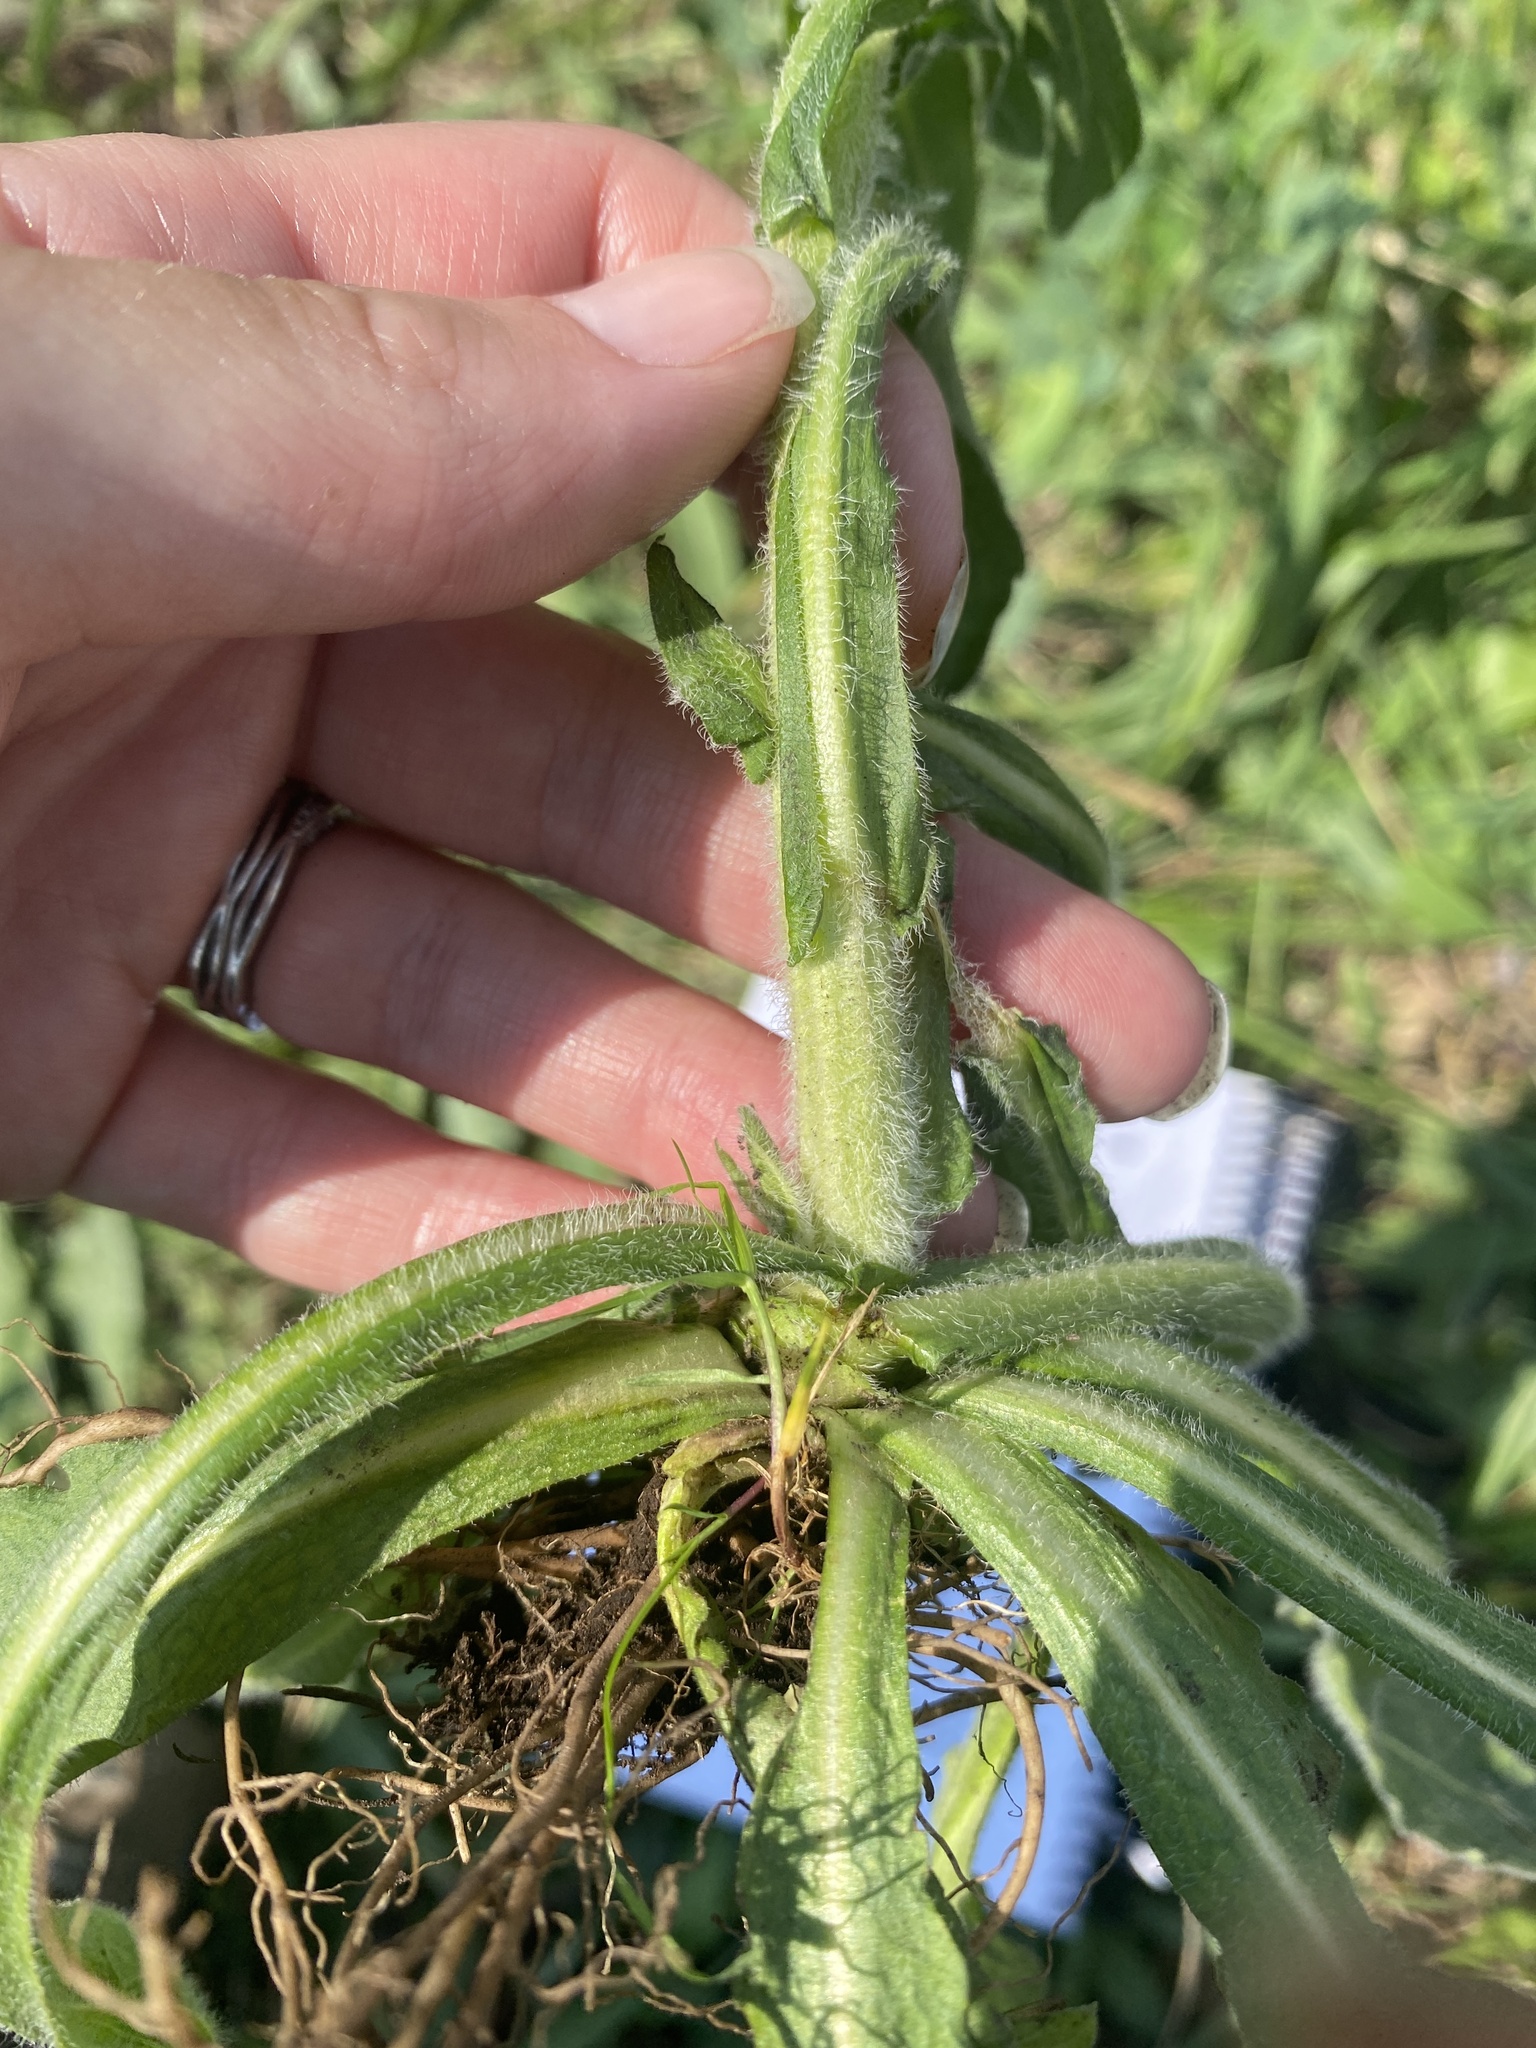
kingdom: Plantae
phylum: Tracheophyta
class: Magnoliopsida
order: Asterales
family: Asteraceae
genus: Erigeron
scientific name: Erigeron philadelphicus
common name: Robin's-plantain
